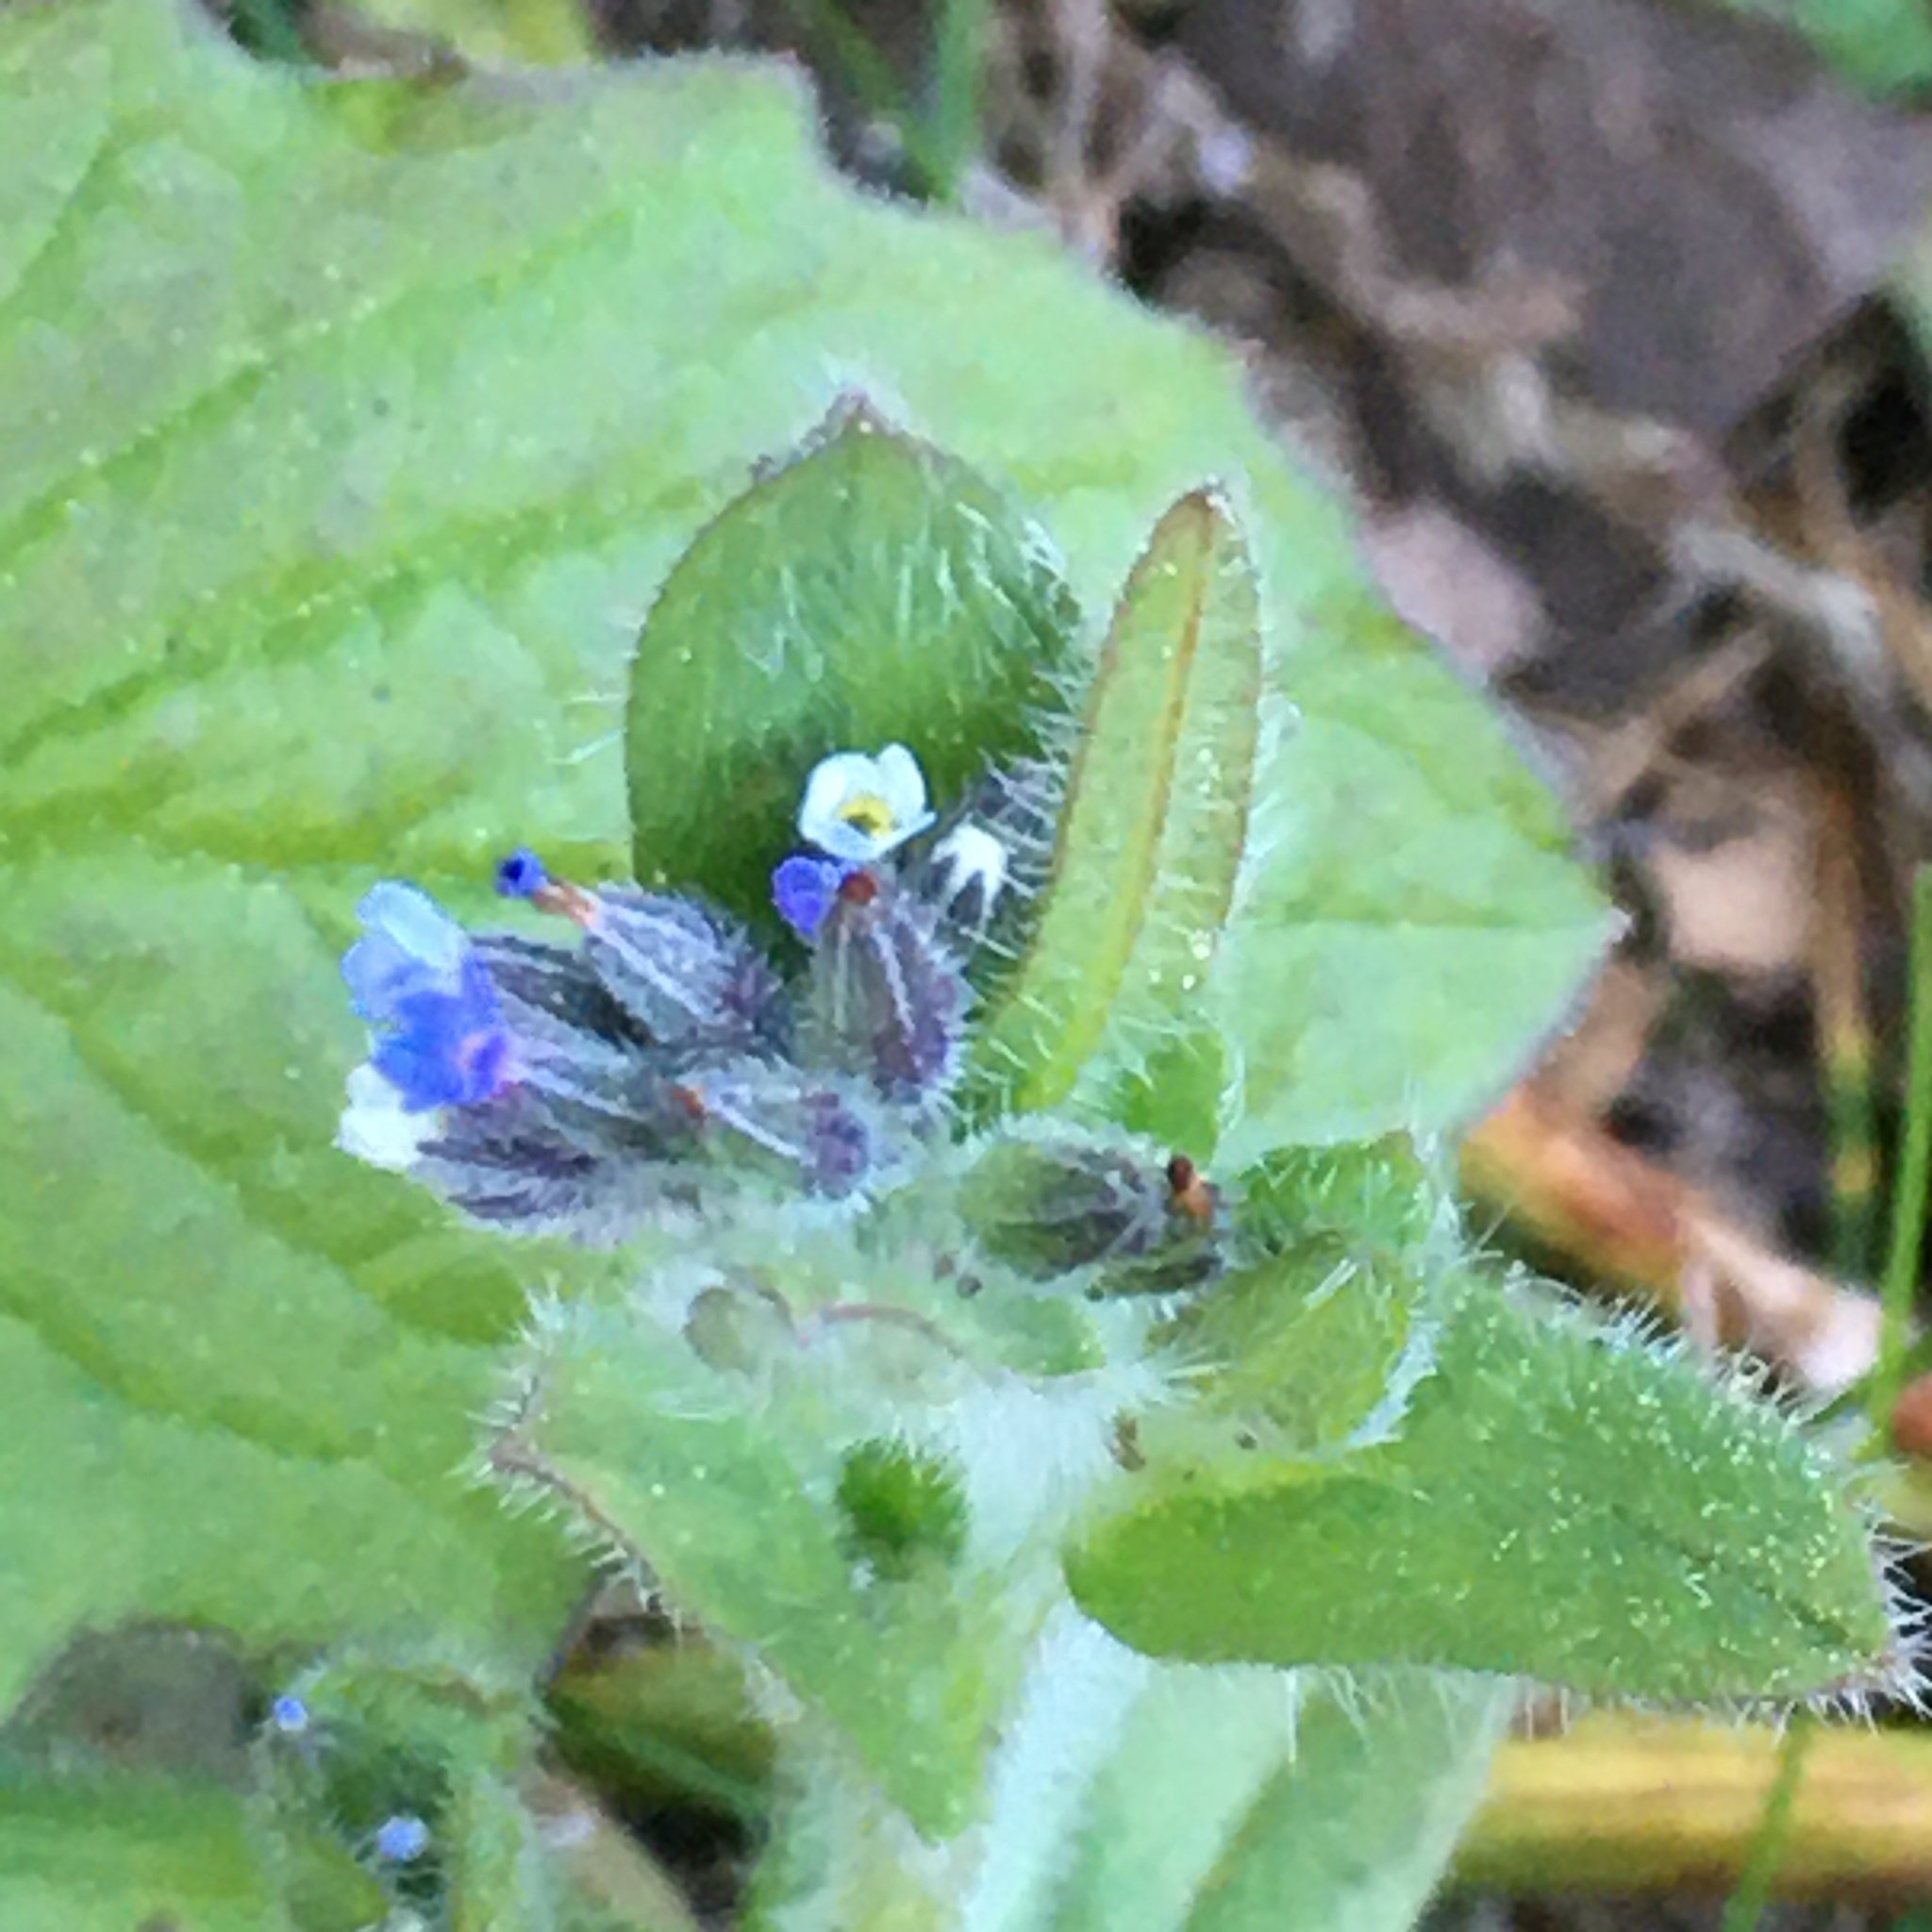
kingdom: Plantae
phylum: Tracheophyta
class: Magnoliopsida
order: Boraginales
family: Boraginaceae
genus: Myosotis
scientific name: Myosotis discolor
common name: Changing forget-me-not
